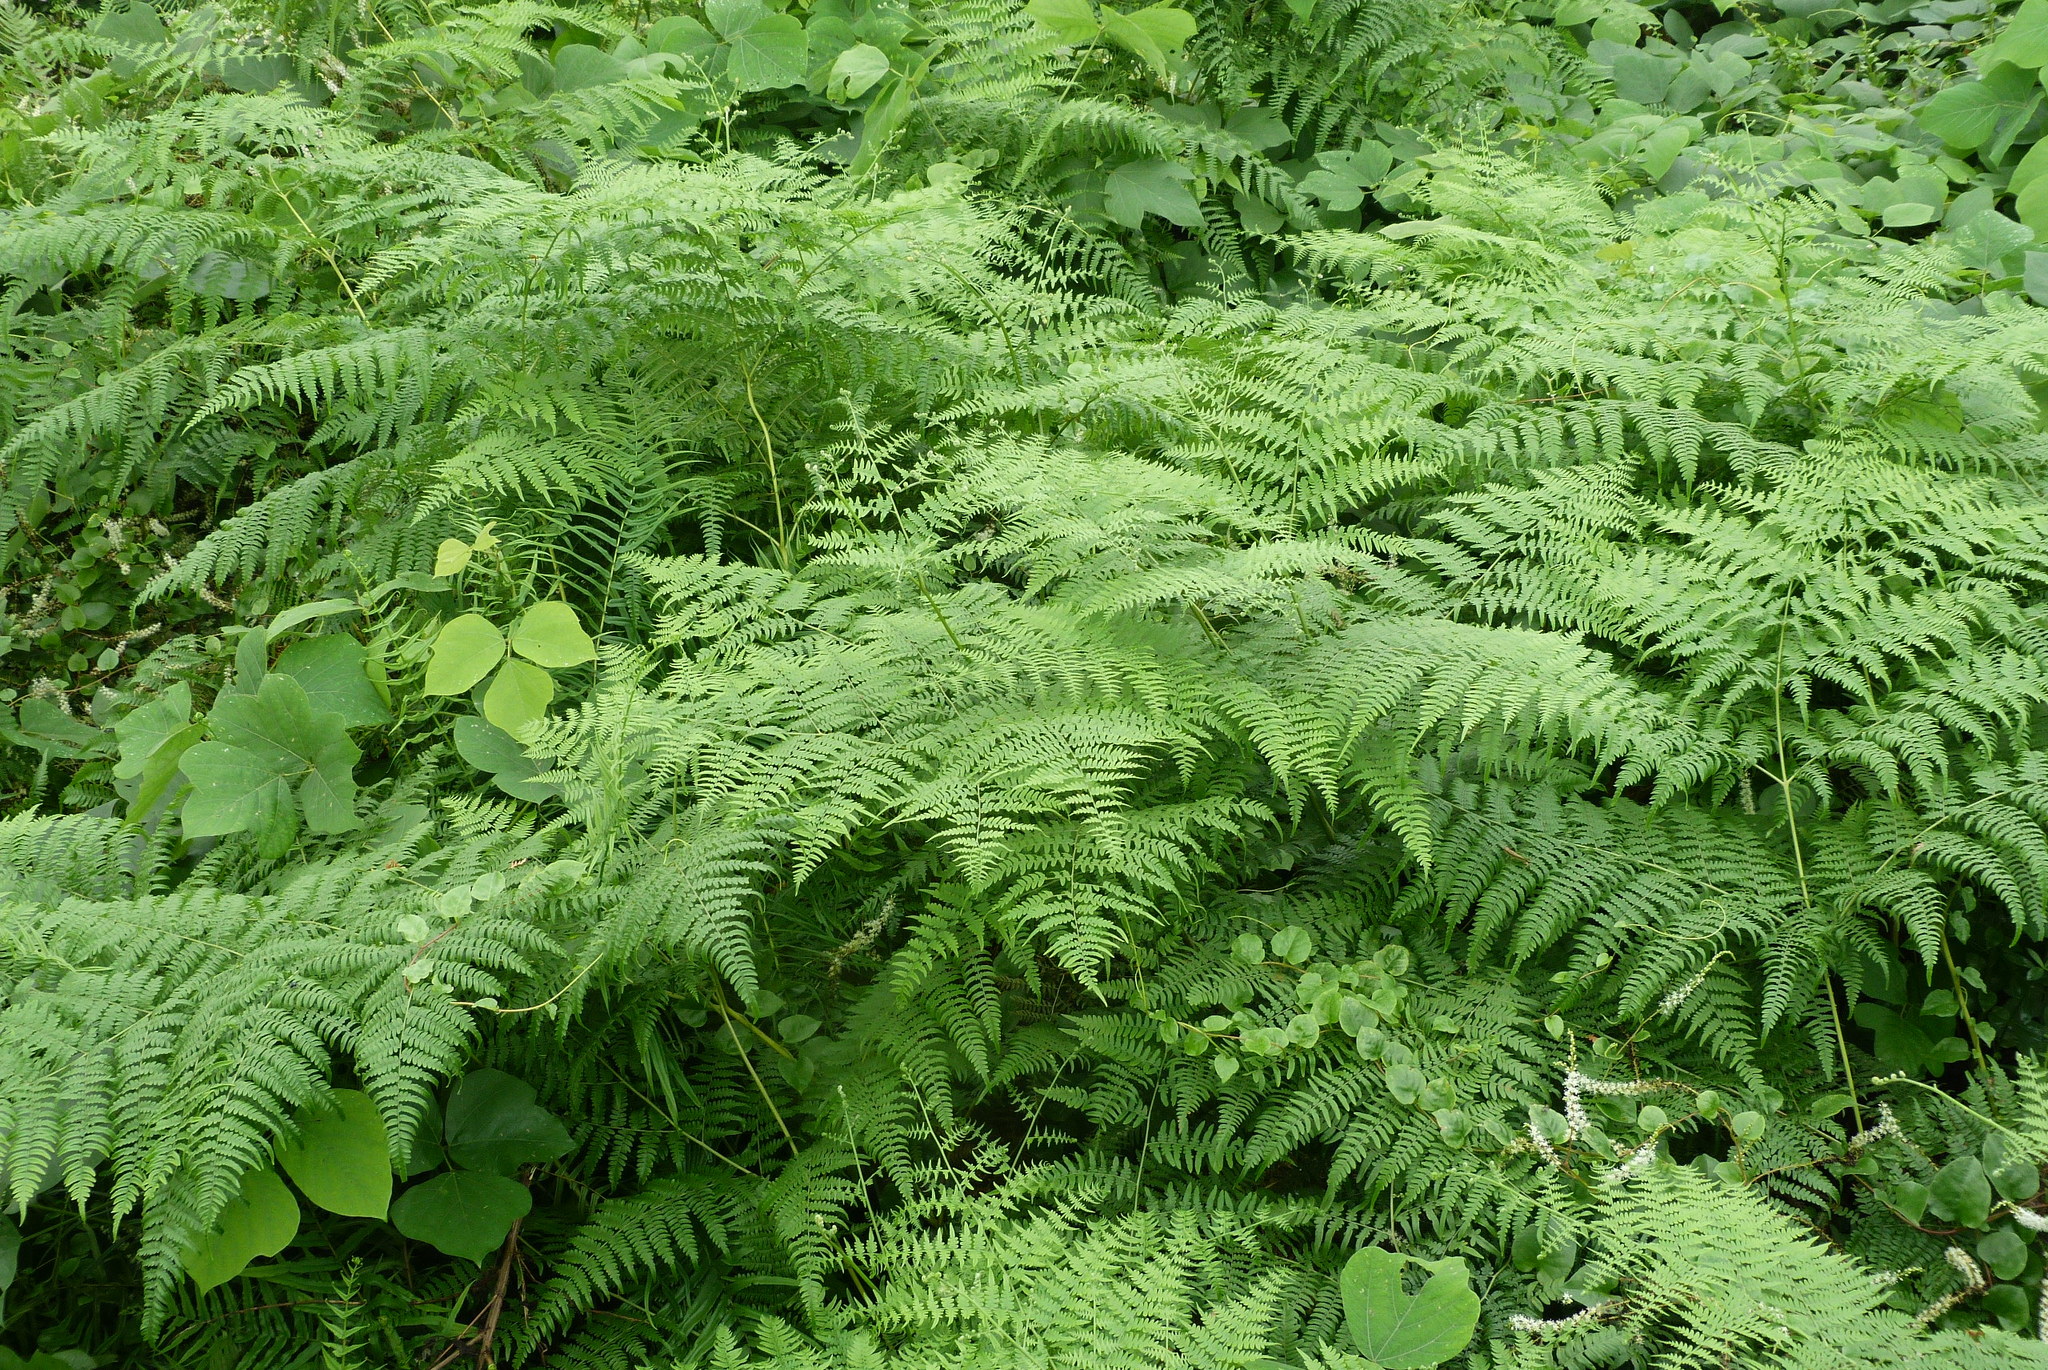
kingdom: Plantae
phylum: Tracheophyta
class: Polypodiopsida
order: Polypodiales
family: Dennstaedtiaceae
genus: Pteridium
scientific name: Pteridium aquilinum
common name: Bracken
